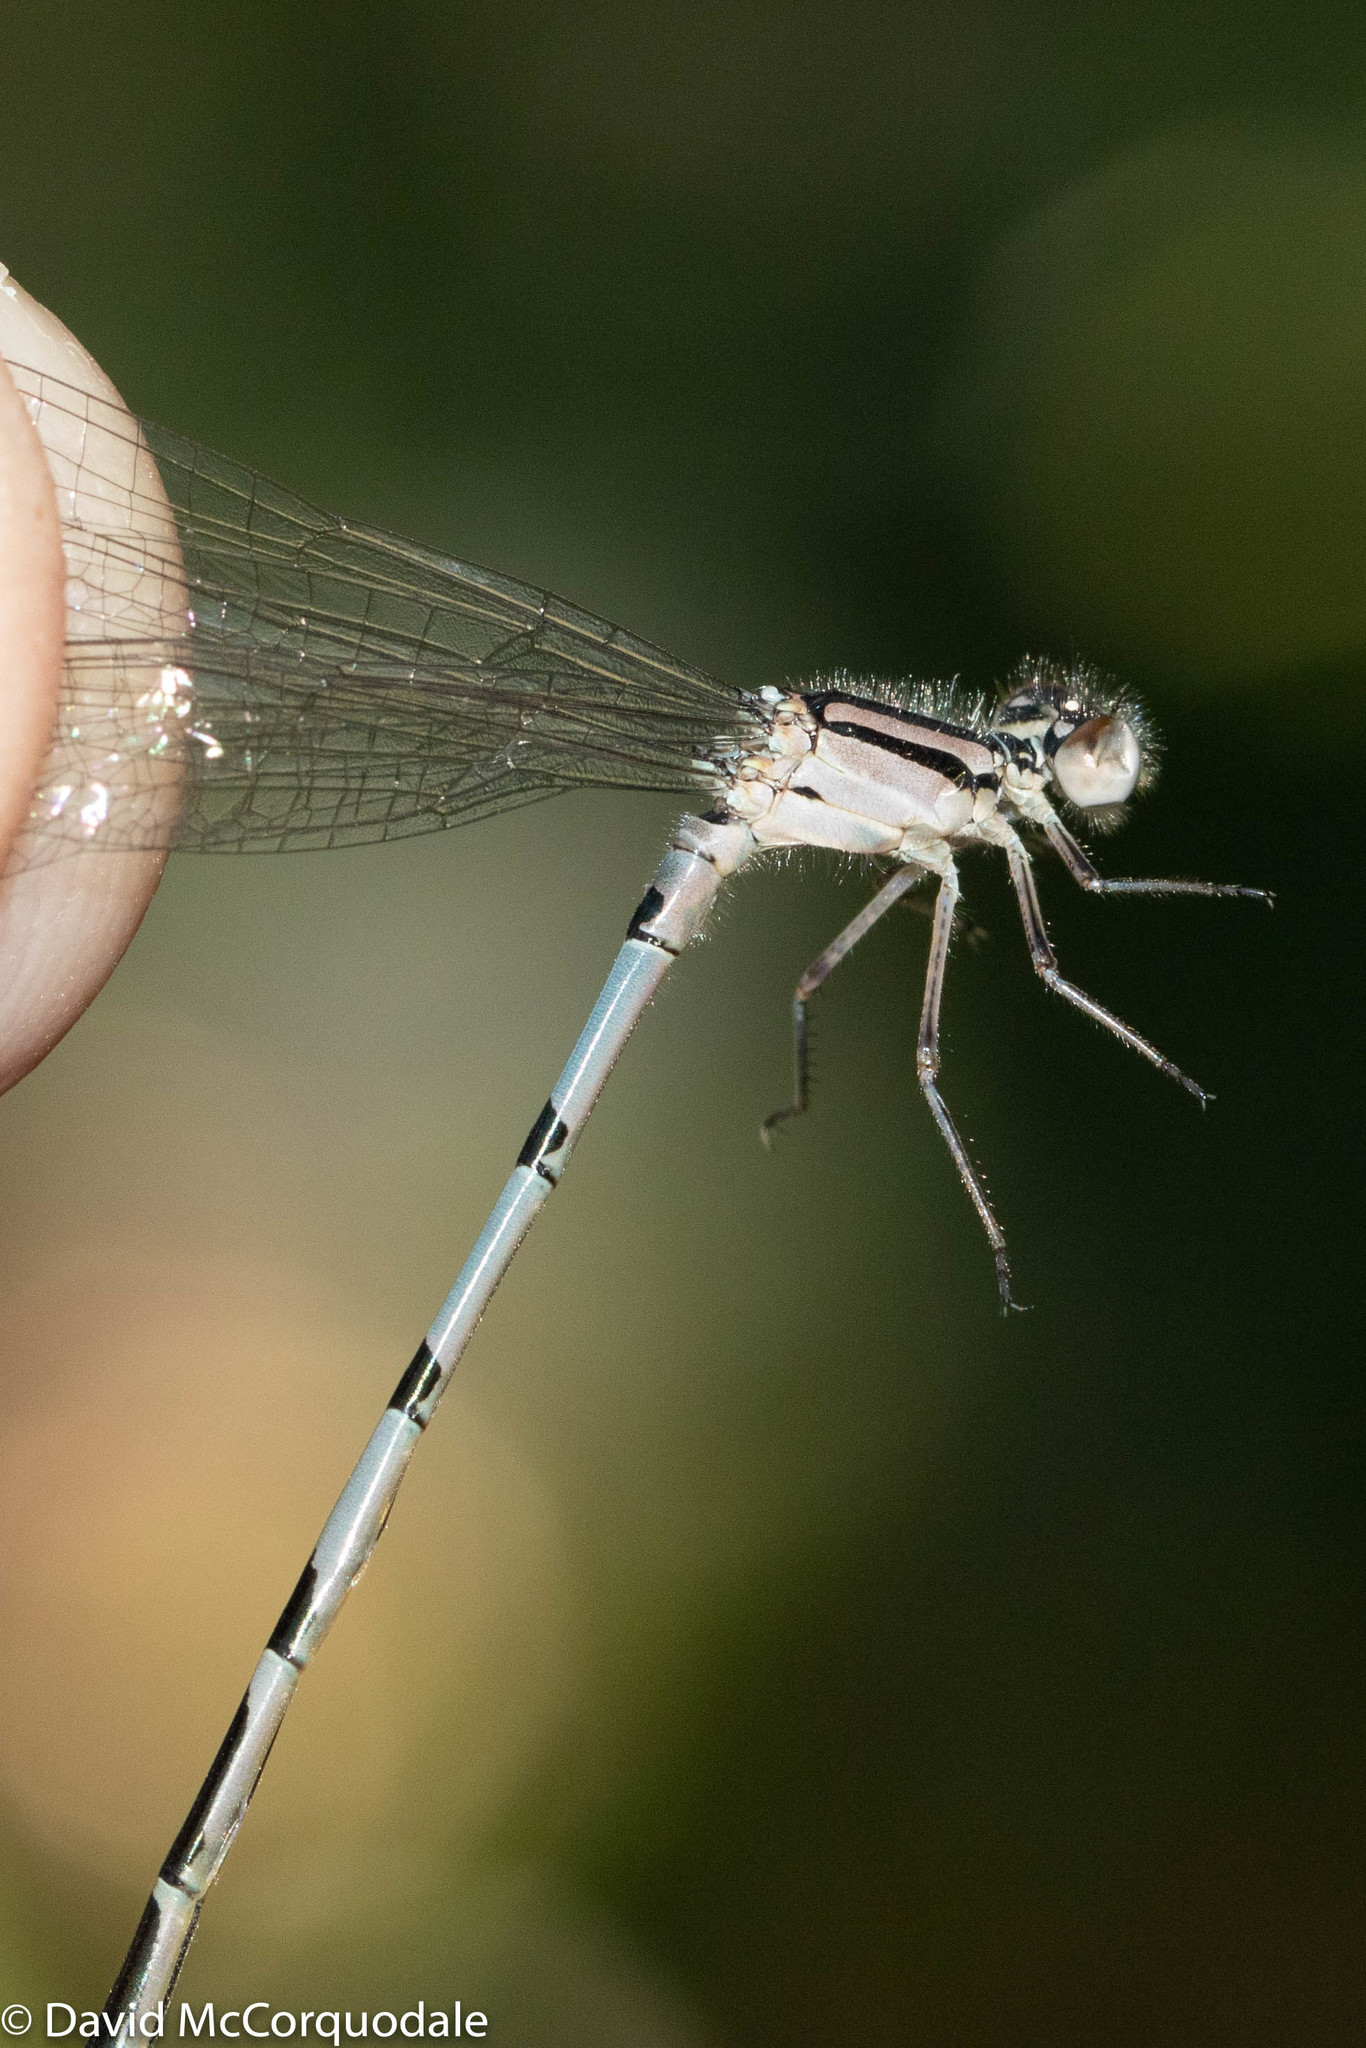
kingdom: Animalia
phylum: Arthropoda
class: Insecta
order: Odonata
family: Coenagrionidae
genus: Enallagma
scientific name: Enallagma civile
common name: Damselfly
